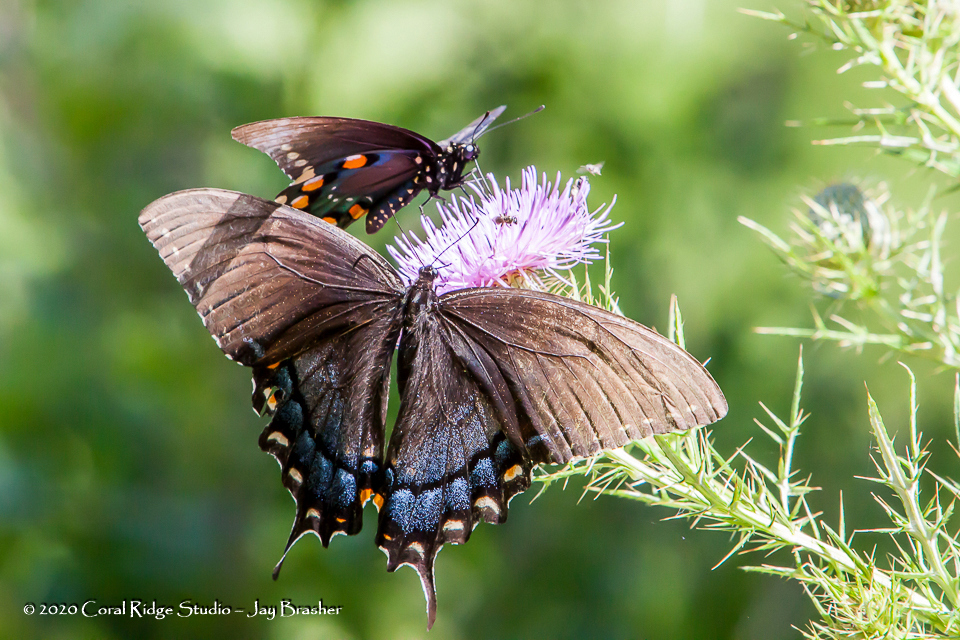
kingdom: Animalia
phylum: Arthropoda
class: Insecta
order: Lepidoptera
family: Papilionidae
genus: Battus
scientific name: Battus philenor
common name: Pipevine swallowtail
